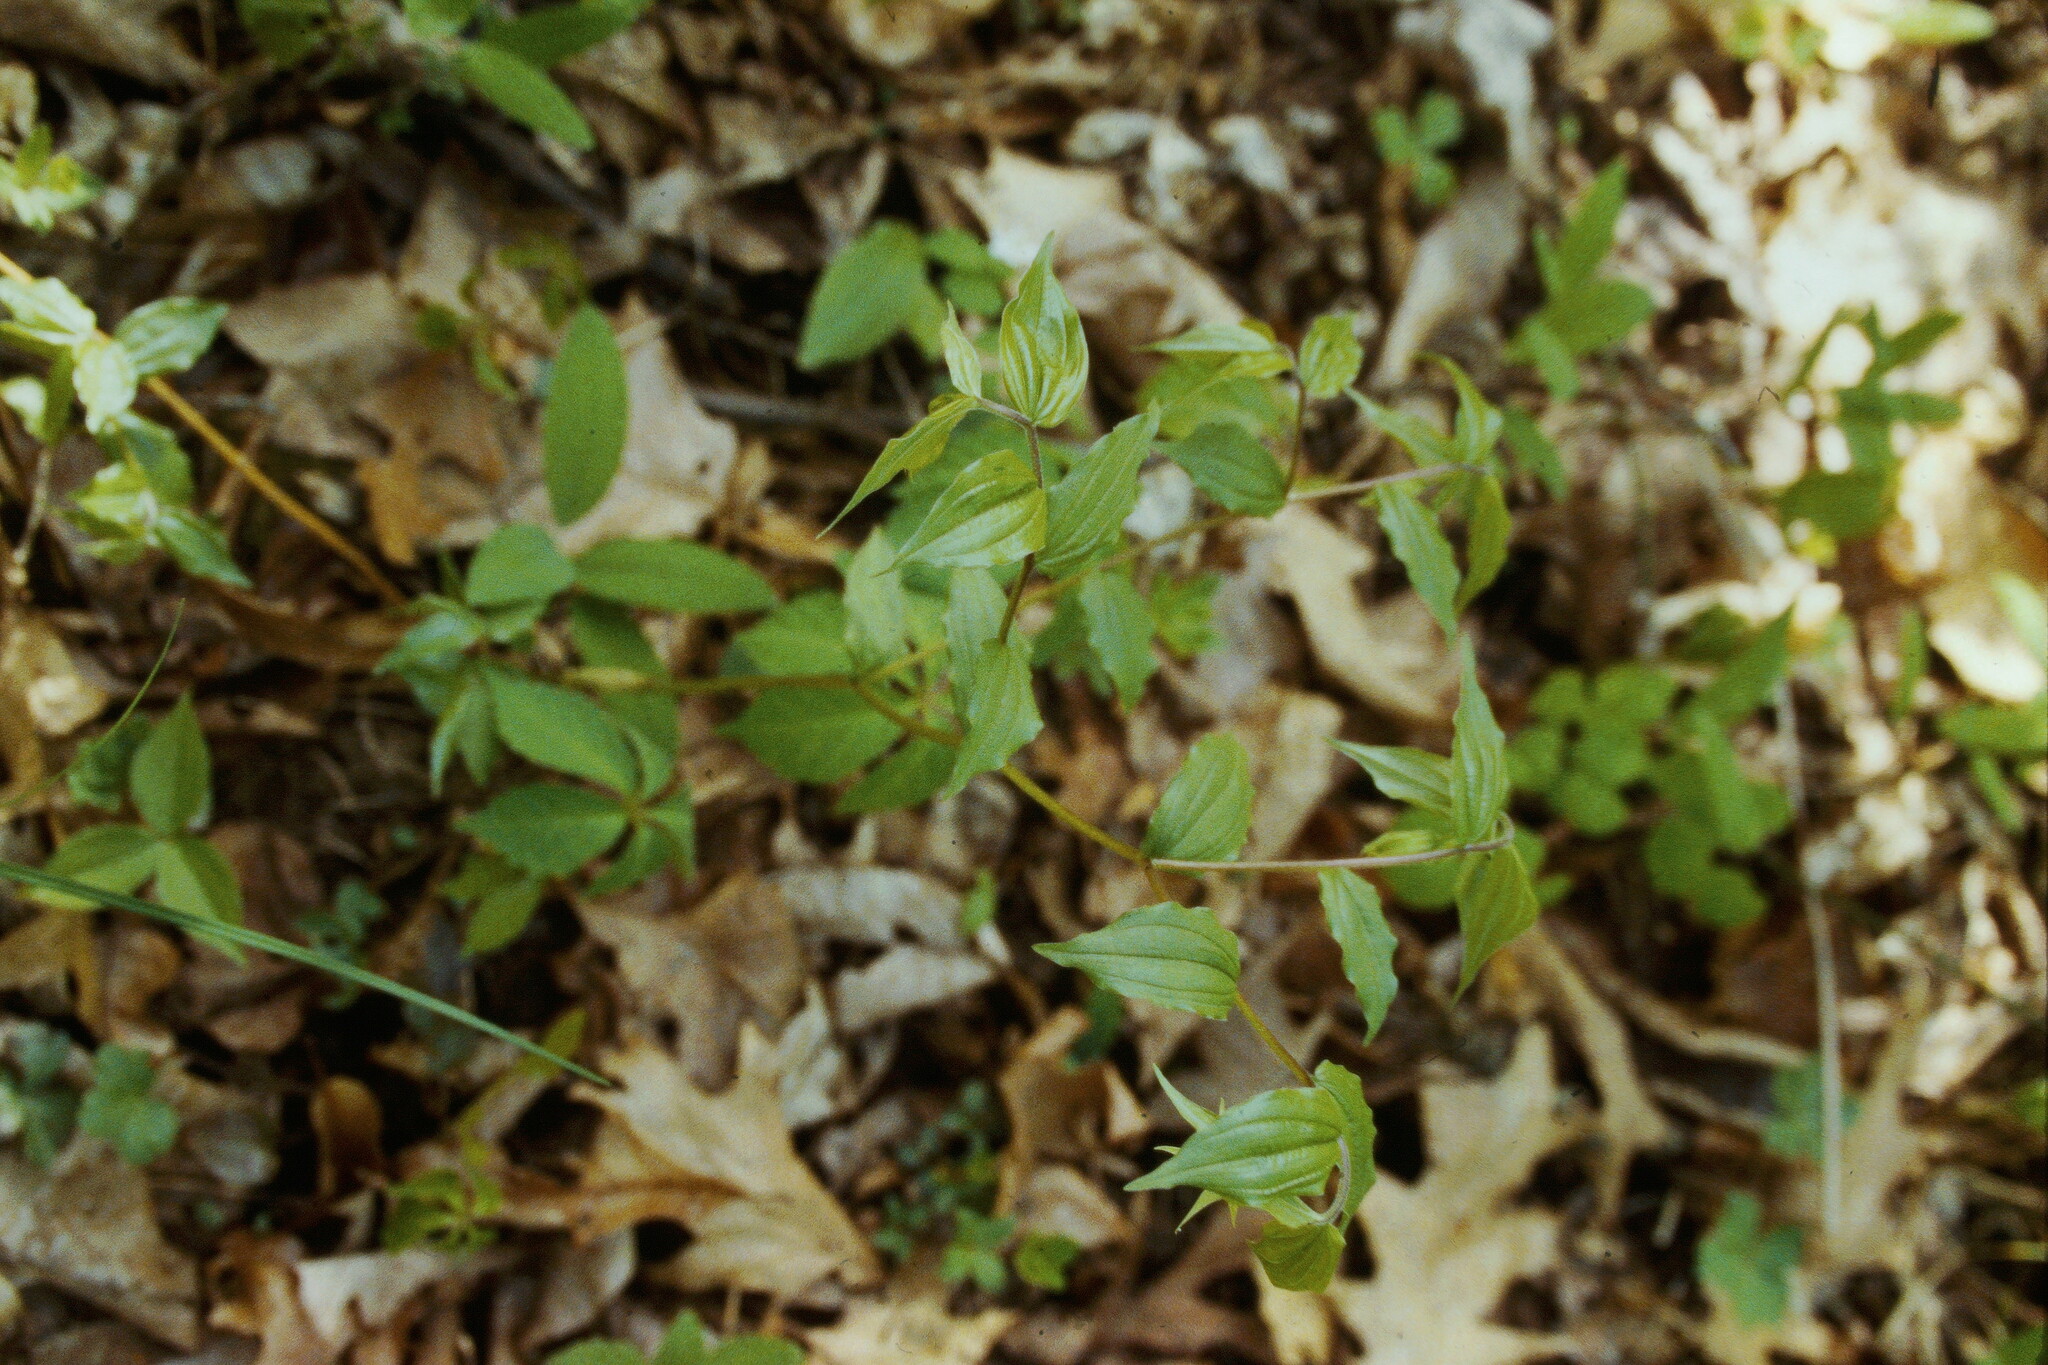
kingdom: Plantae
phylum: Tracheophyta
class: Liliopsida
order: Liliales
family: Liliaceae
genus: Prosartes
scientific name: Prosartes lanuginosa
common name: Hairy mandarin
